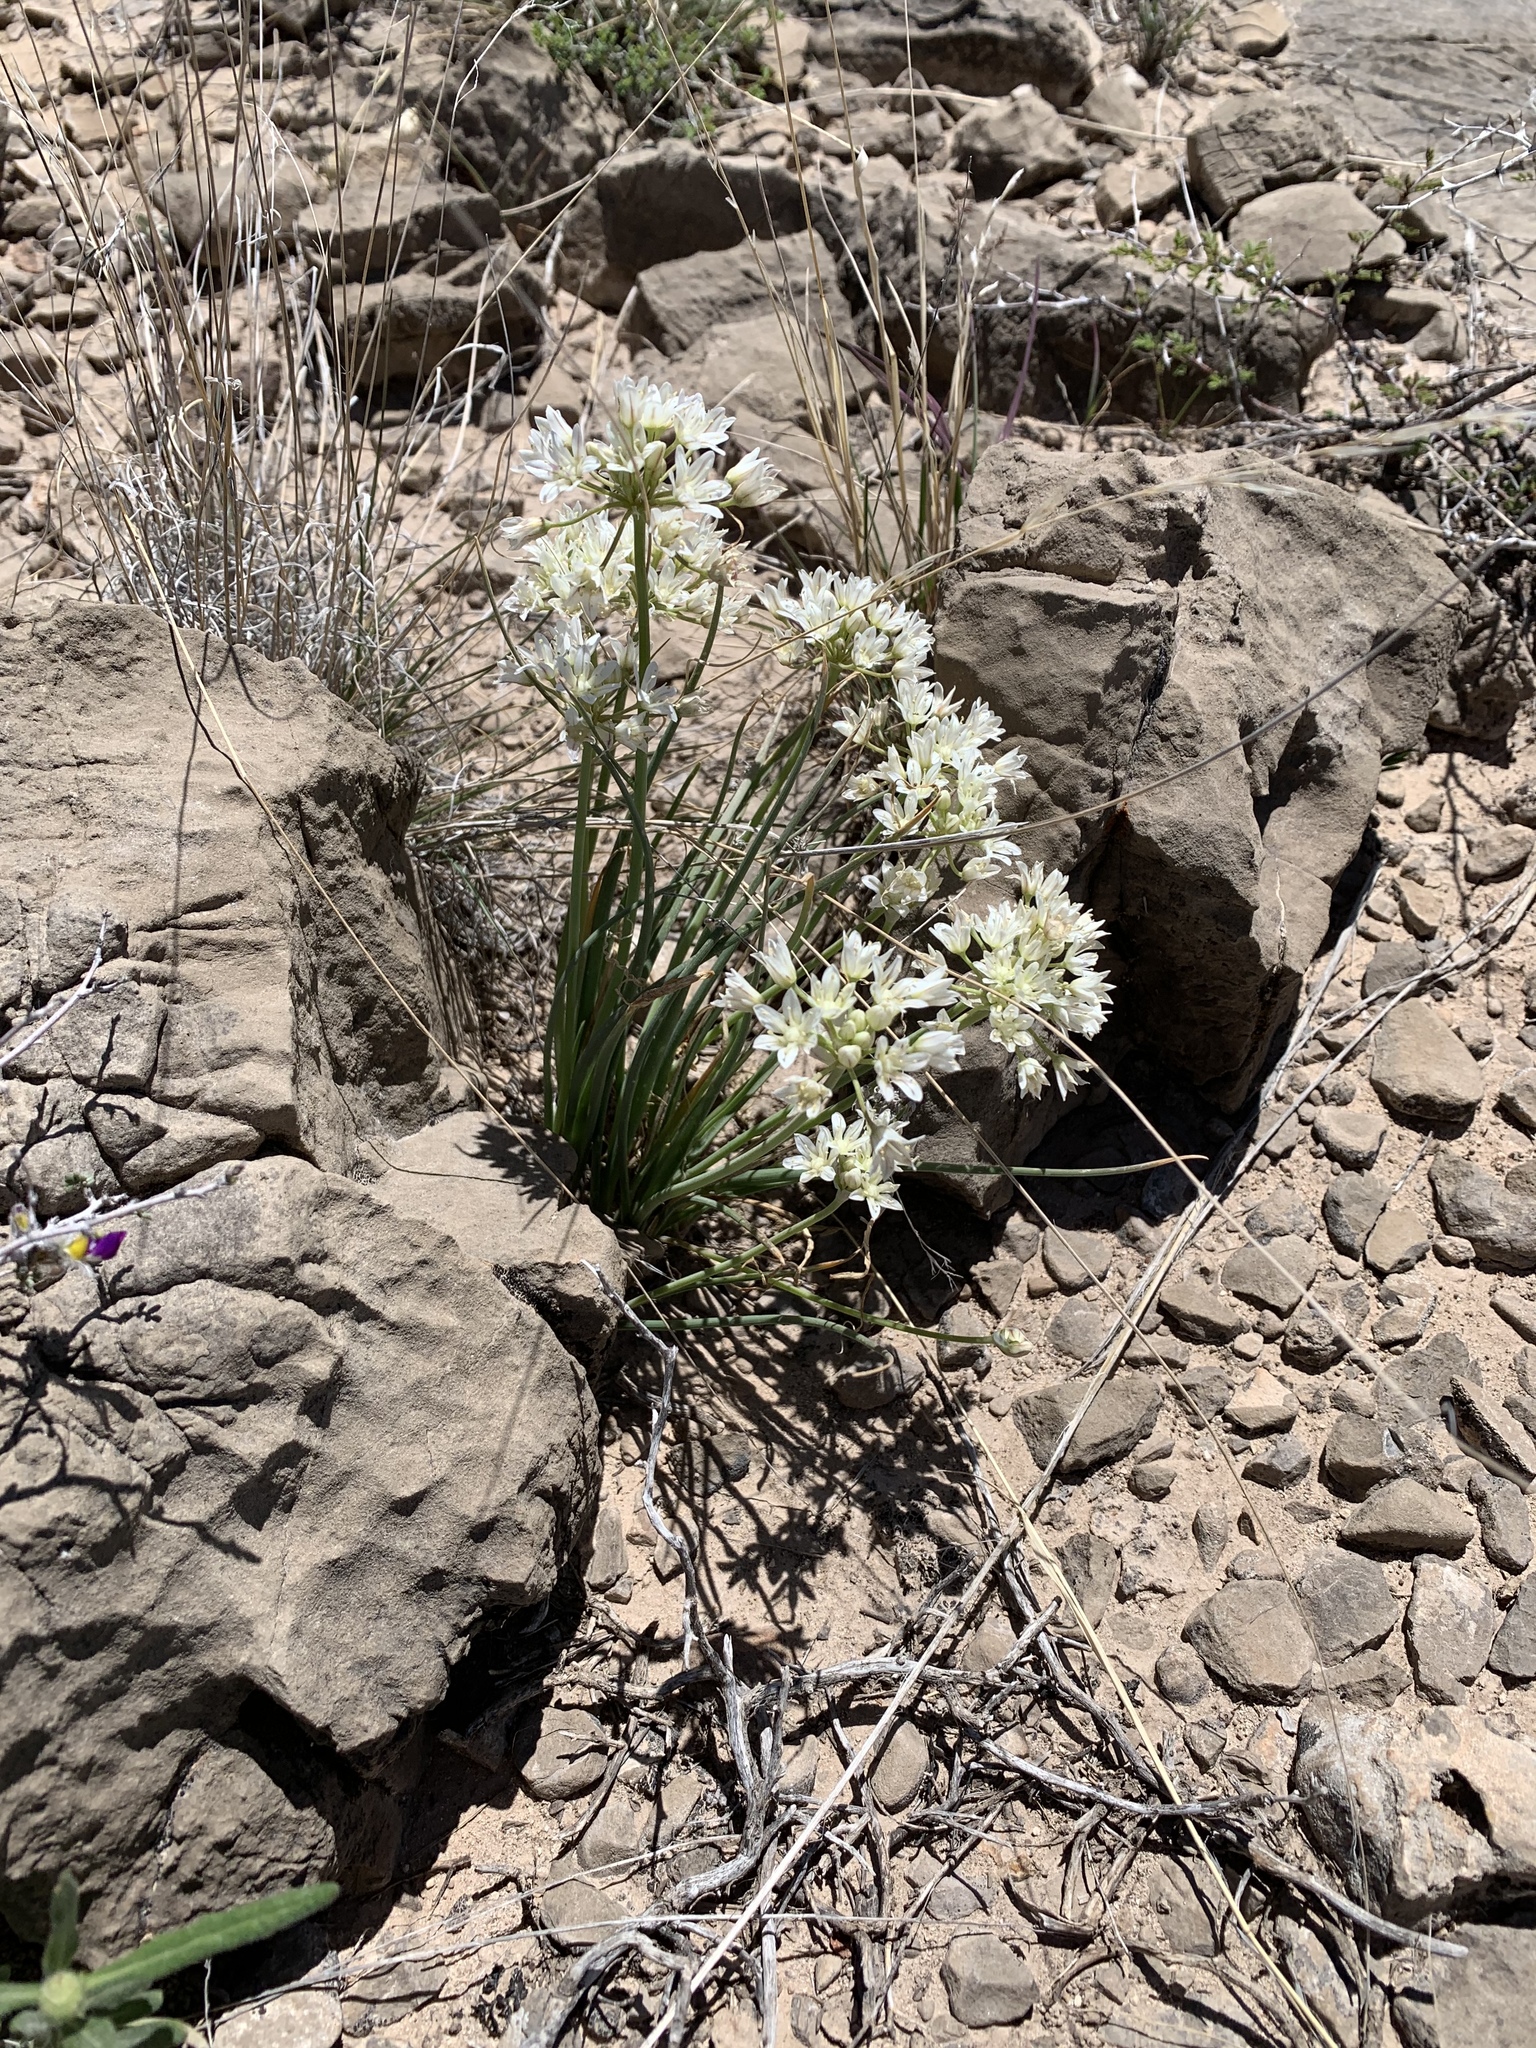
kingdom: Plantae
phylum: Tracheophyta
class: Liliopsida
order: Asparagales
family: Amaryllidaceae
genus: Allium
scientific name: Allium drummondii
